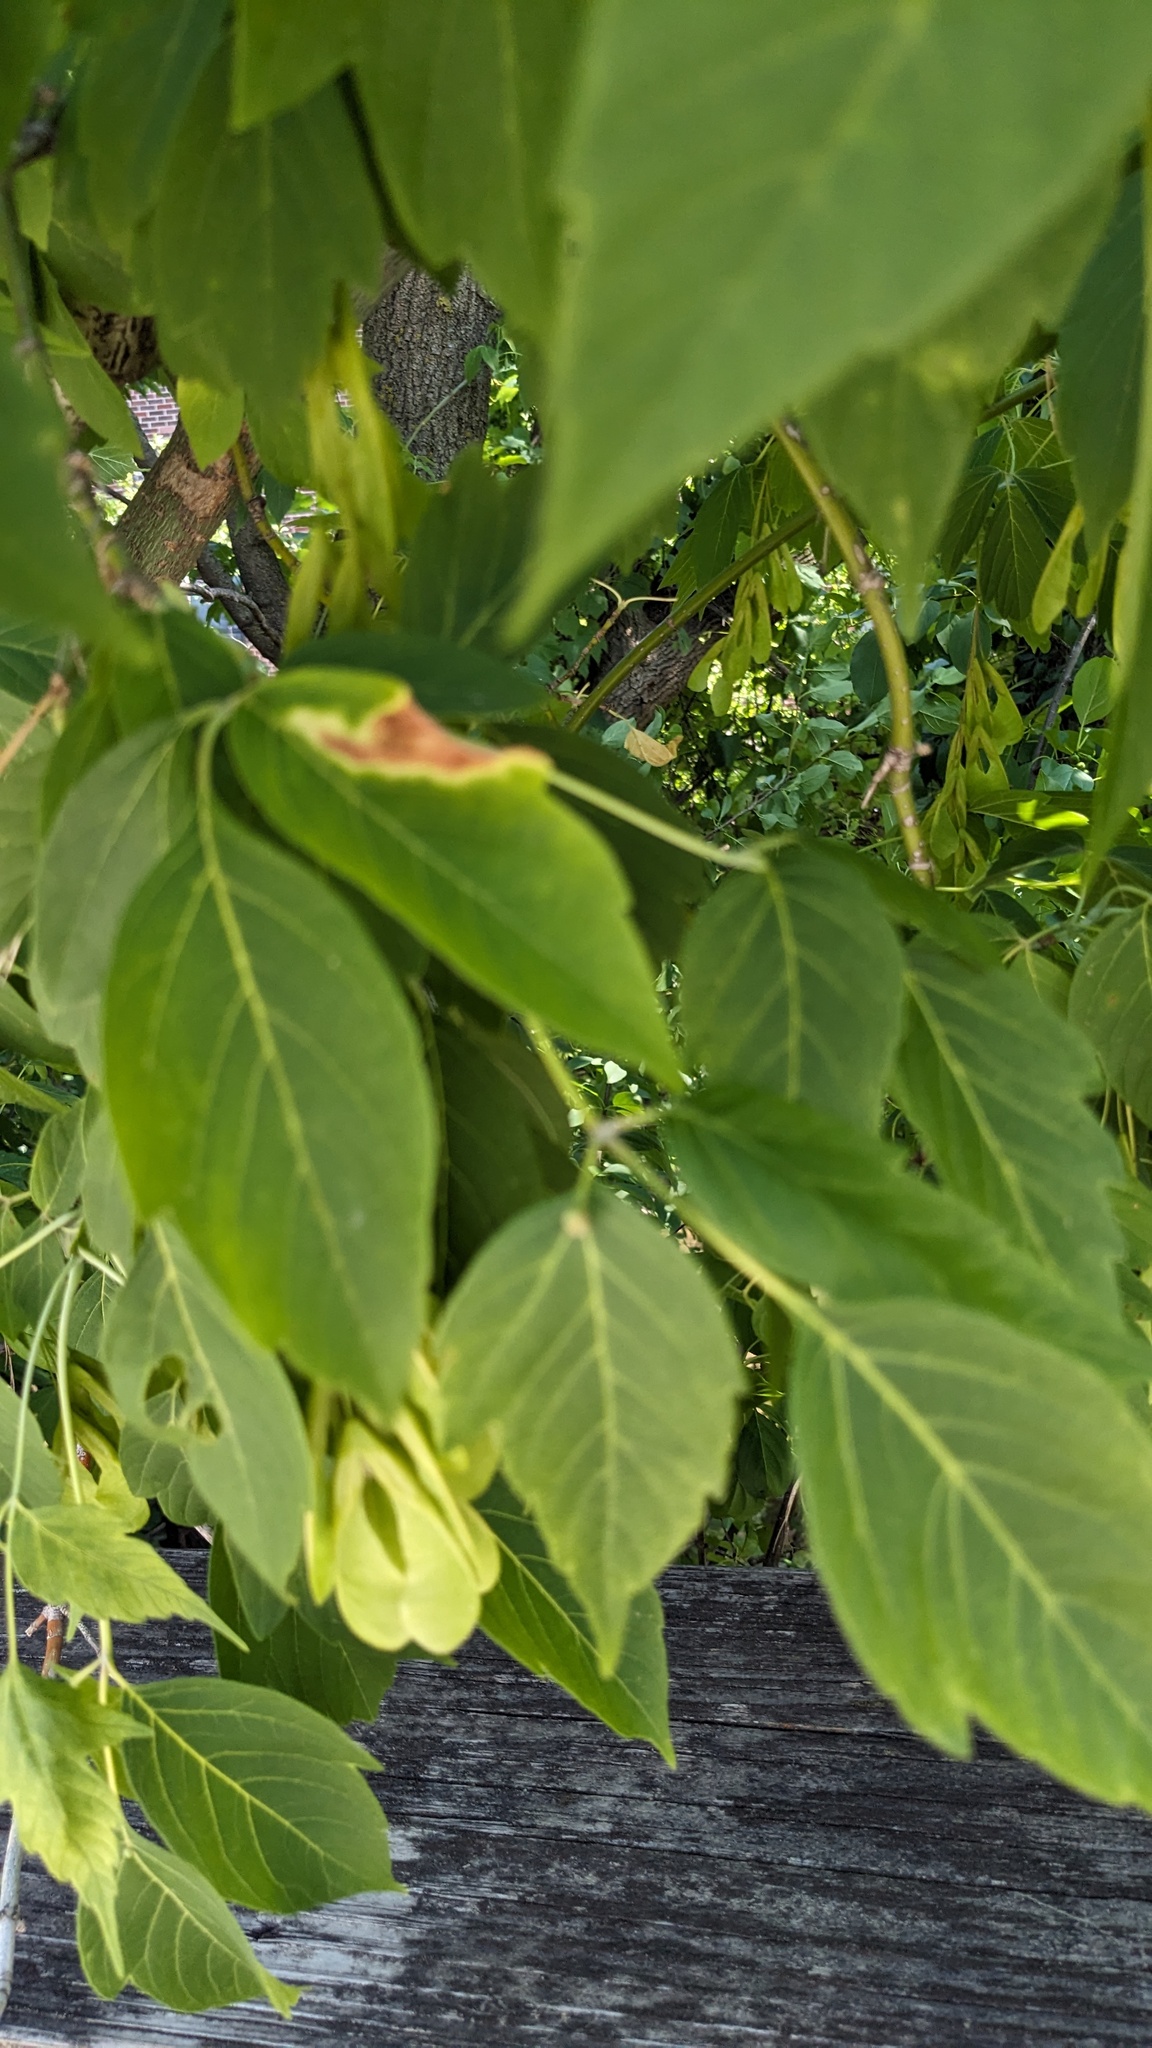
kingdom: Plantae
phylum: Tracheophyta
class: Magnoliopsida
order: Sapindales
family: Sapindaceae
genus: Acer
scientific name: Acer negundo
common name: Ashleaf maple
